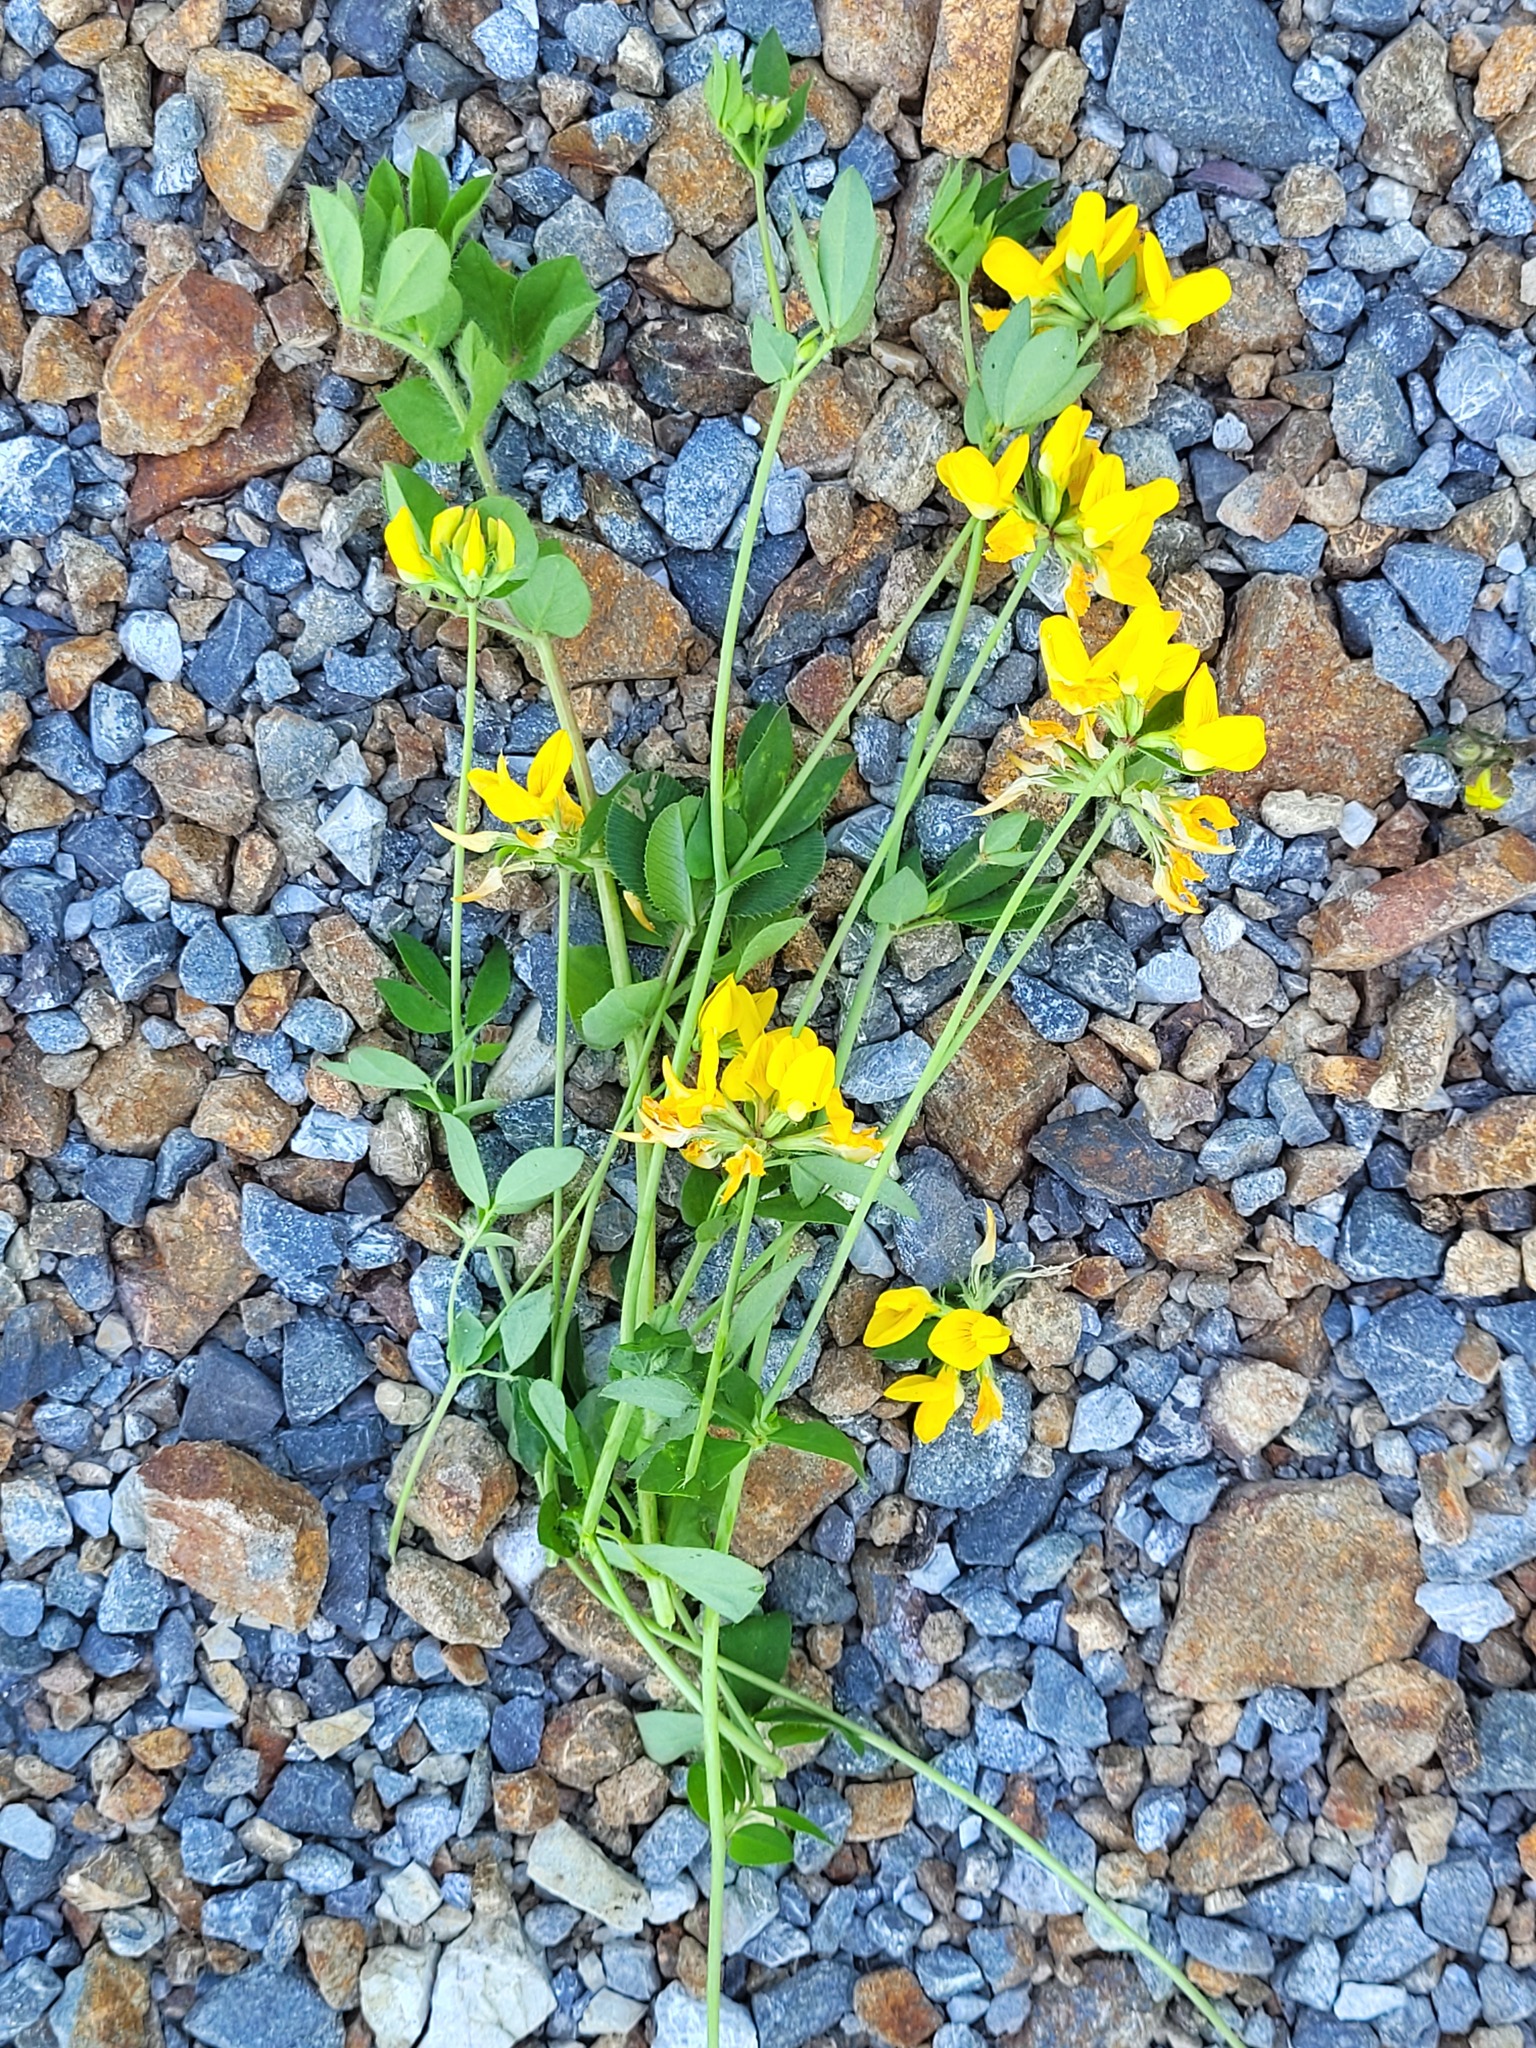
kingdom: Plantae
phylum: Tracheophyta
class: Magnoliopsida
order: Fabales
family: Fabaceae
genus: Lotus
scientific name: Lotus pedunculatus
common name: Greater birdsfoot-trefoil
